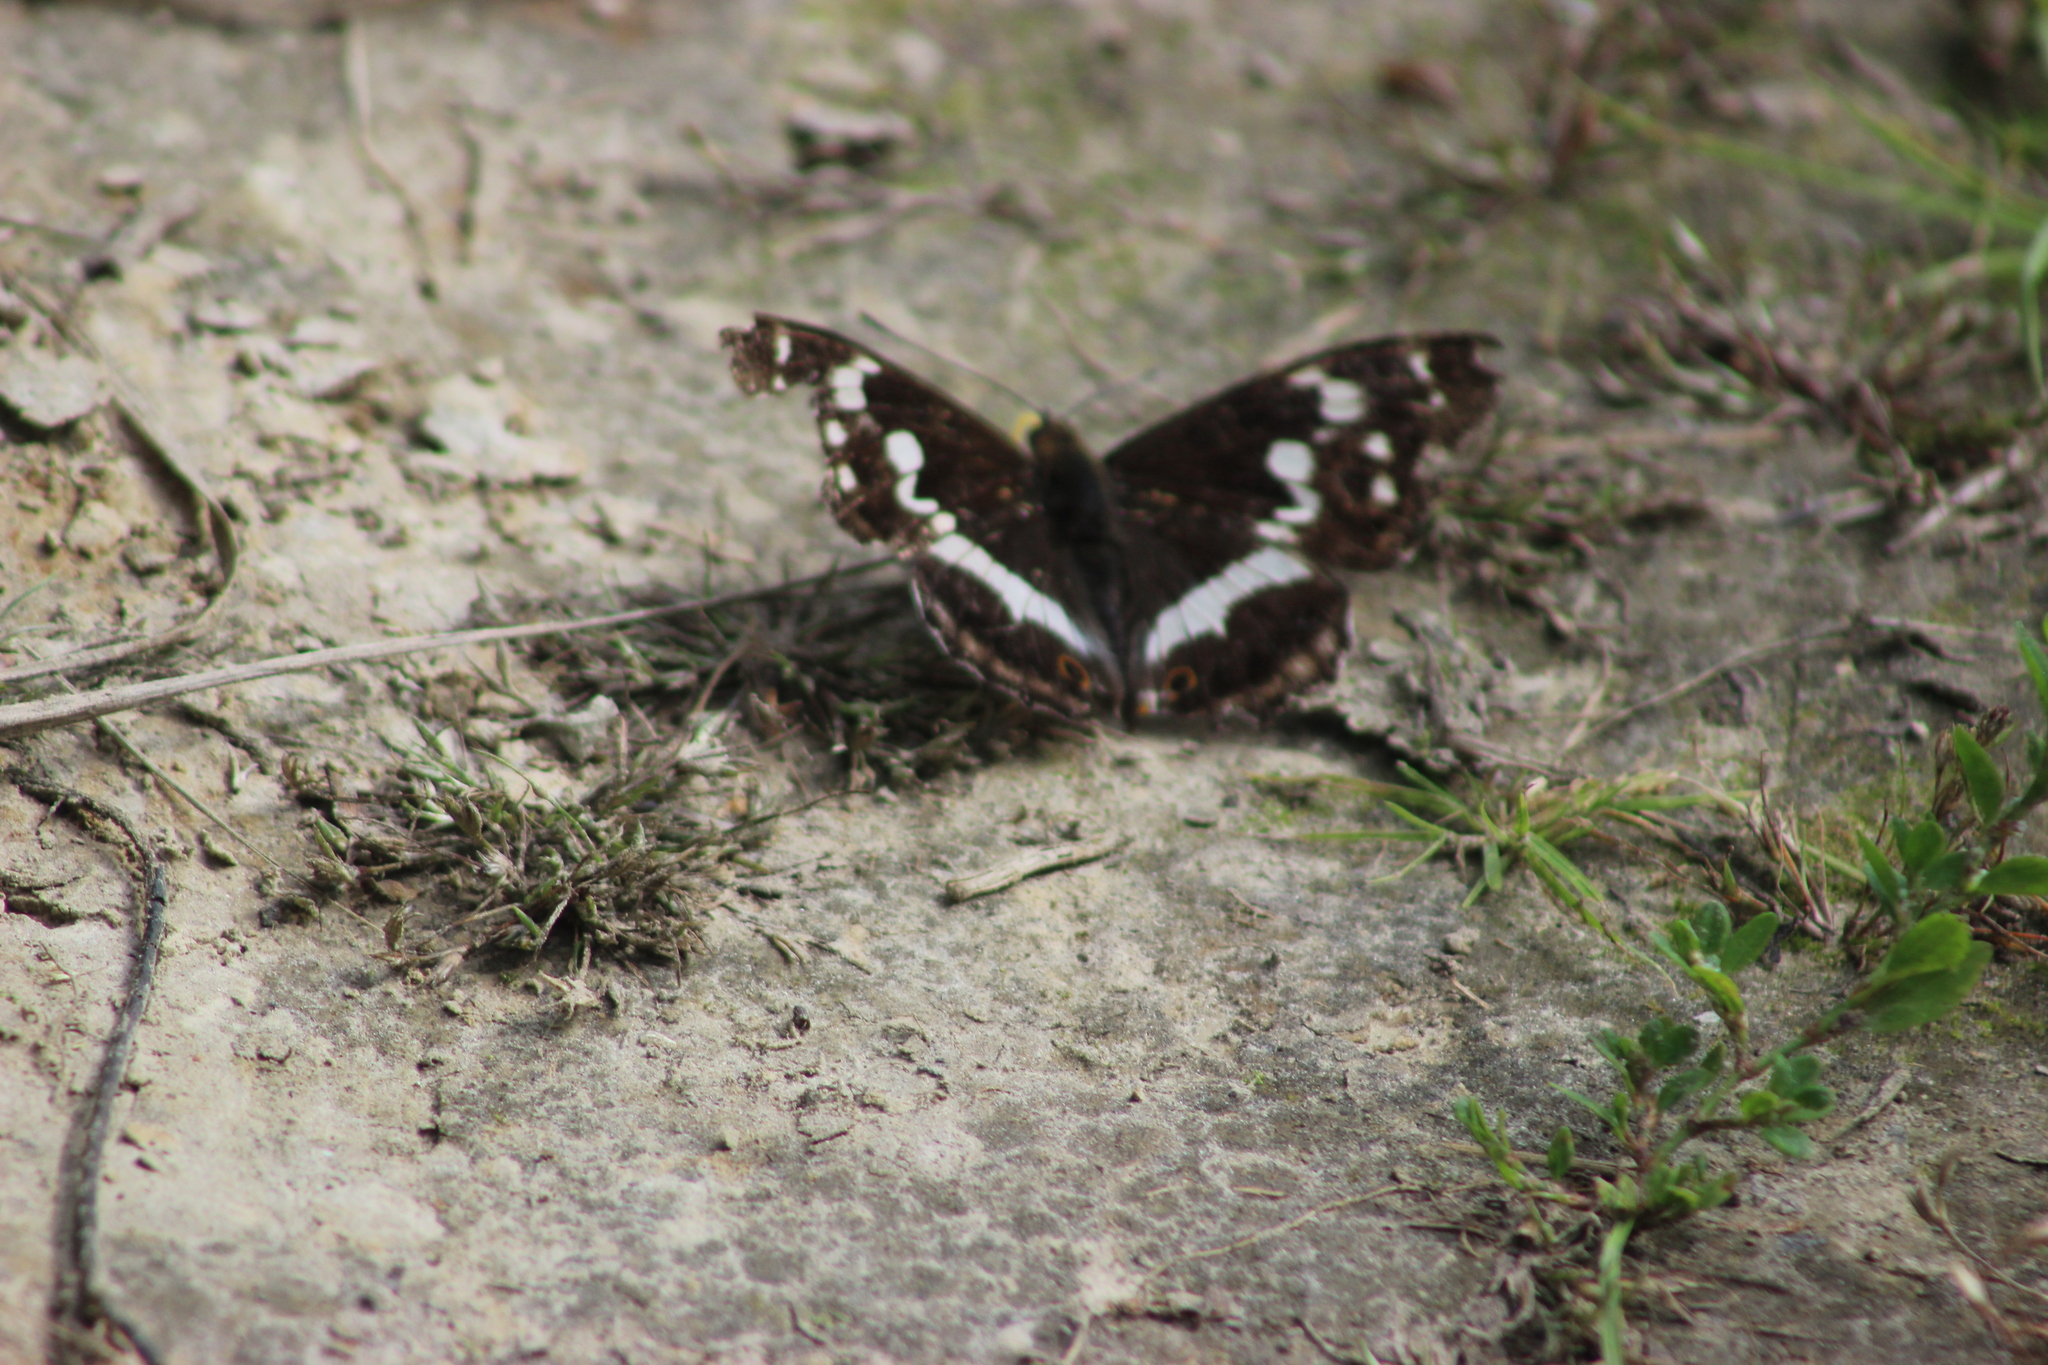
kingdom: Animalia
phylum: Arthropoda
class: Insecta
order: Lepidoptera
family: Nymphalidae
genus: Apatura
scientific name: Apatura iris
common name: Purple emperor
